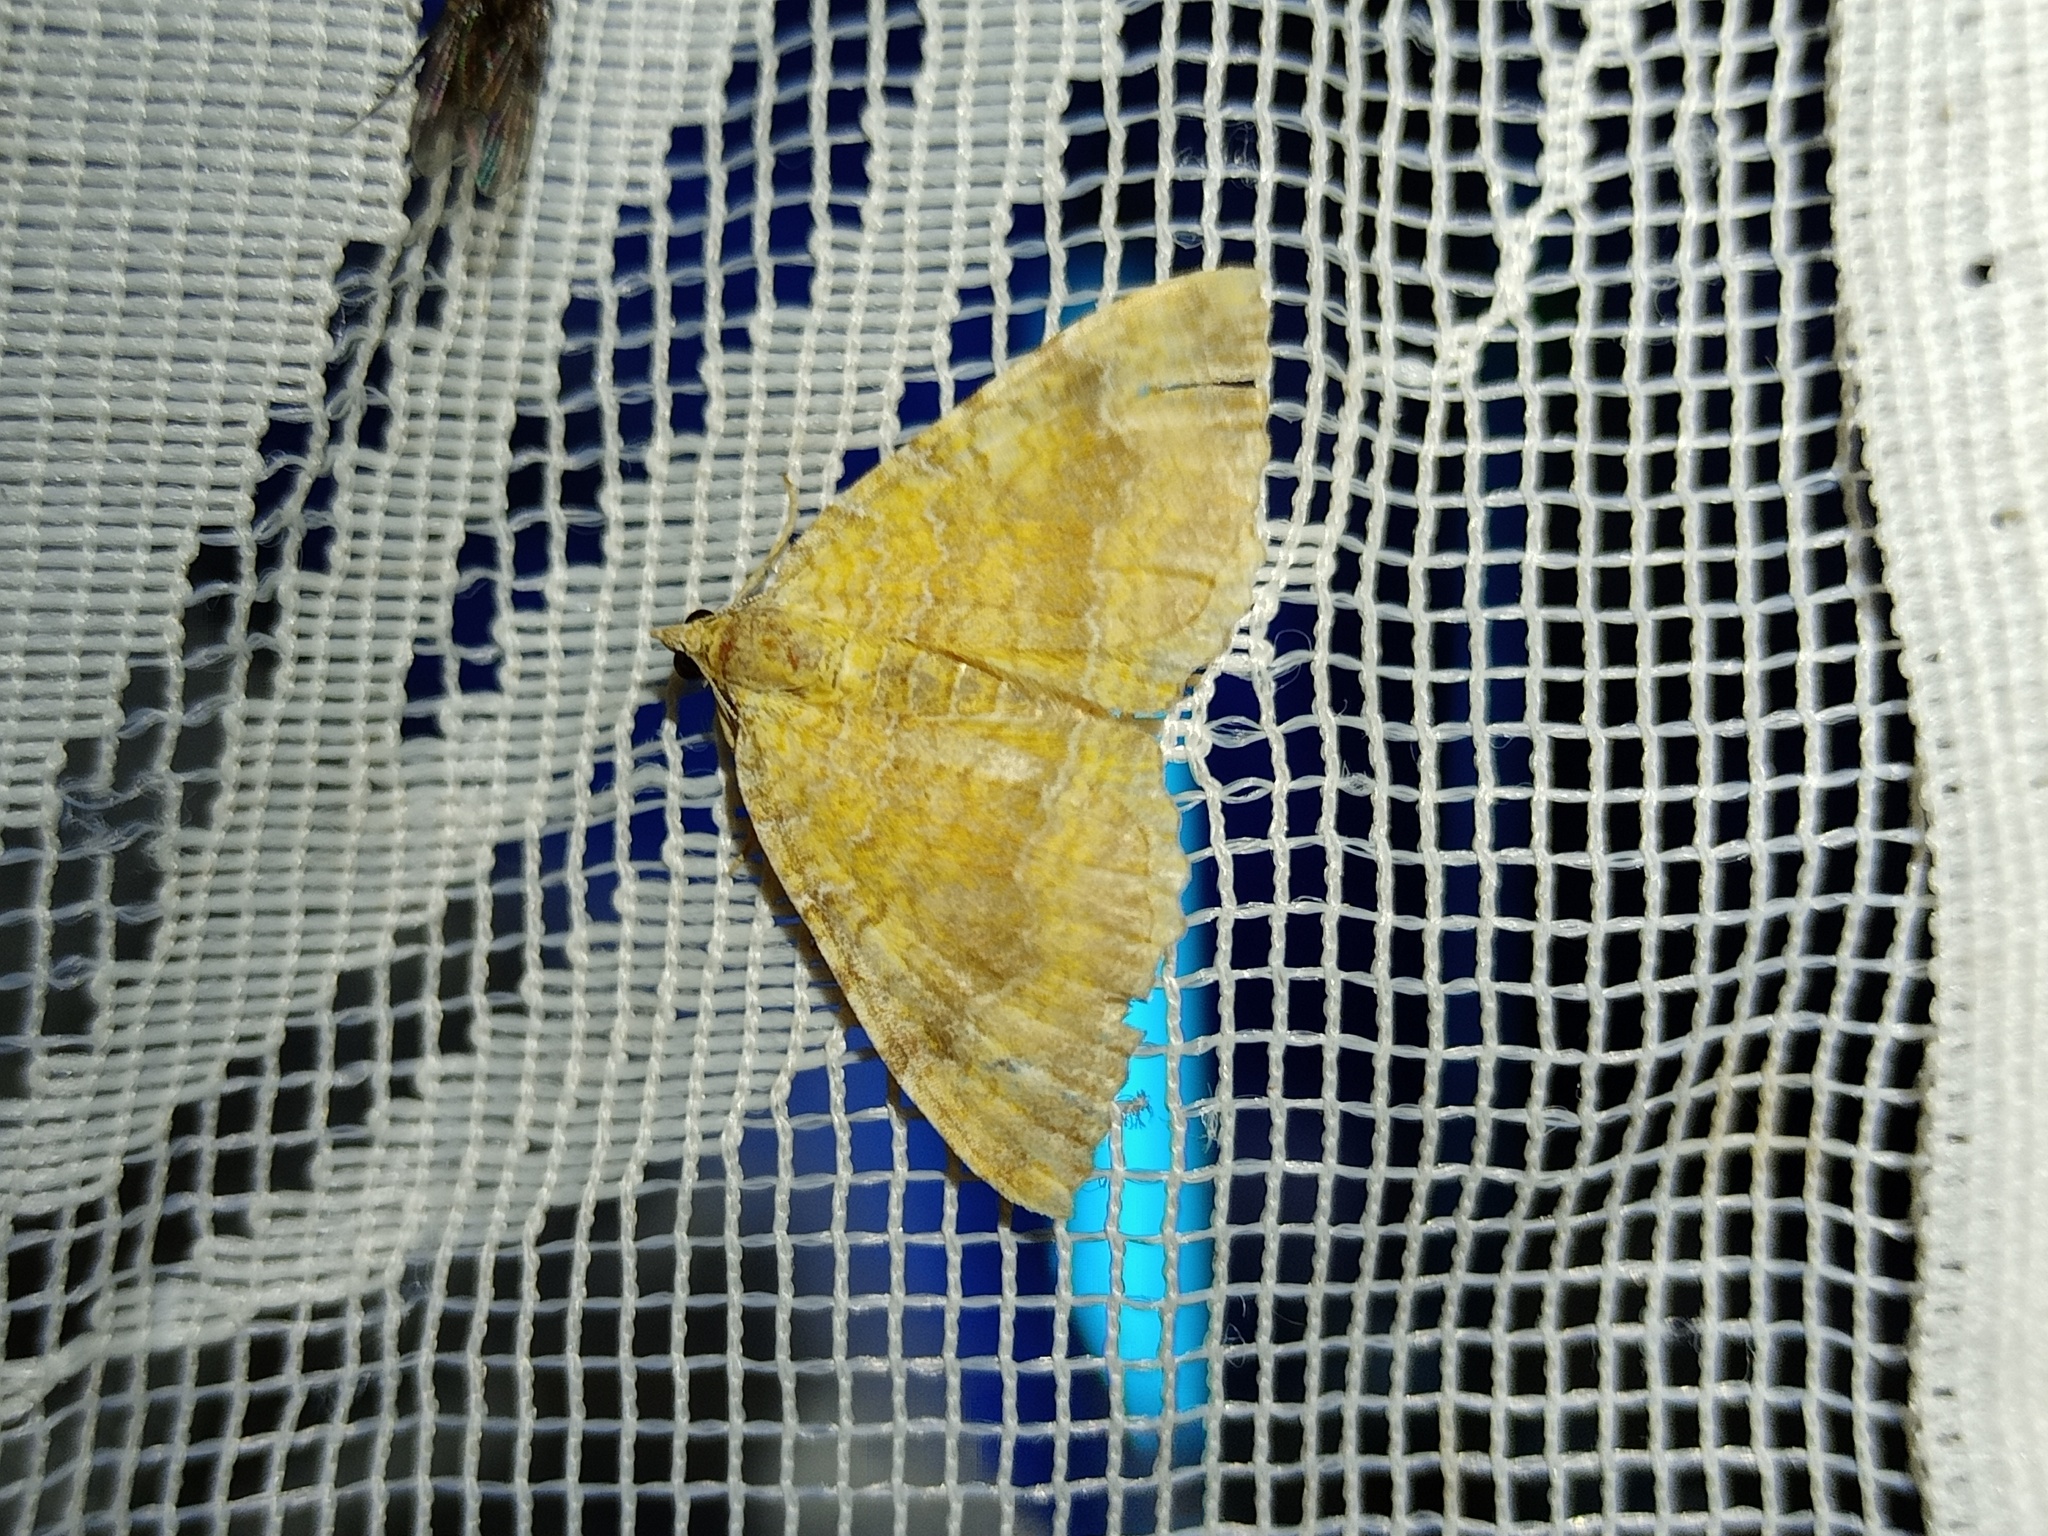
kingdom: Animalia
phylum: Arthropoda
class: Insecta
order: Lepidoptera
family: Geometridae
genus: Camptogramma
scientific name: Camptogramma bilineata
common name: Yellow shell
